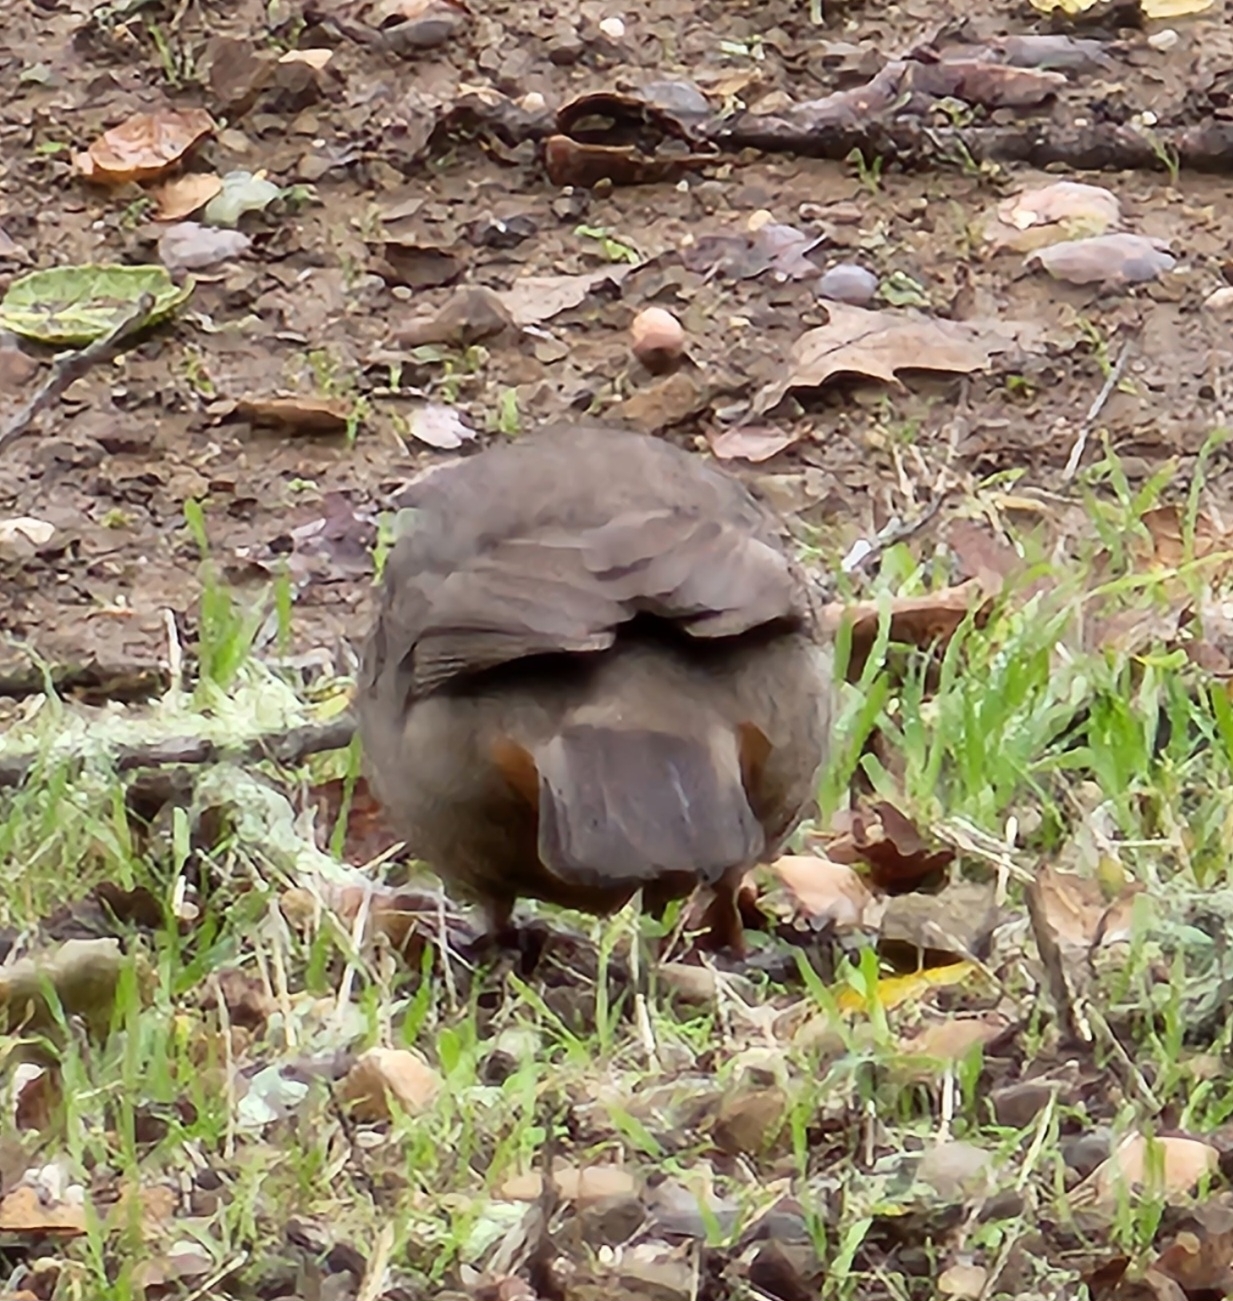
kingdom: Animalia
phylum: Chordata
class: Aves
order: Passeriformes
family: Passerellidae
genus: Melozone
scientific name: Melozone crissalis
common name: California towhee
